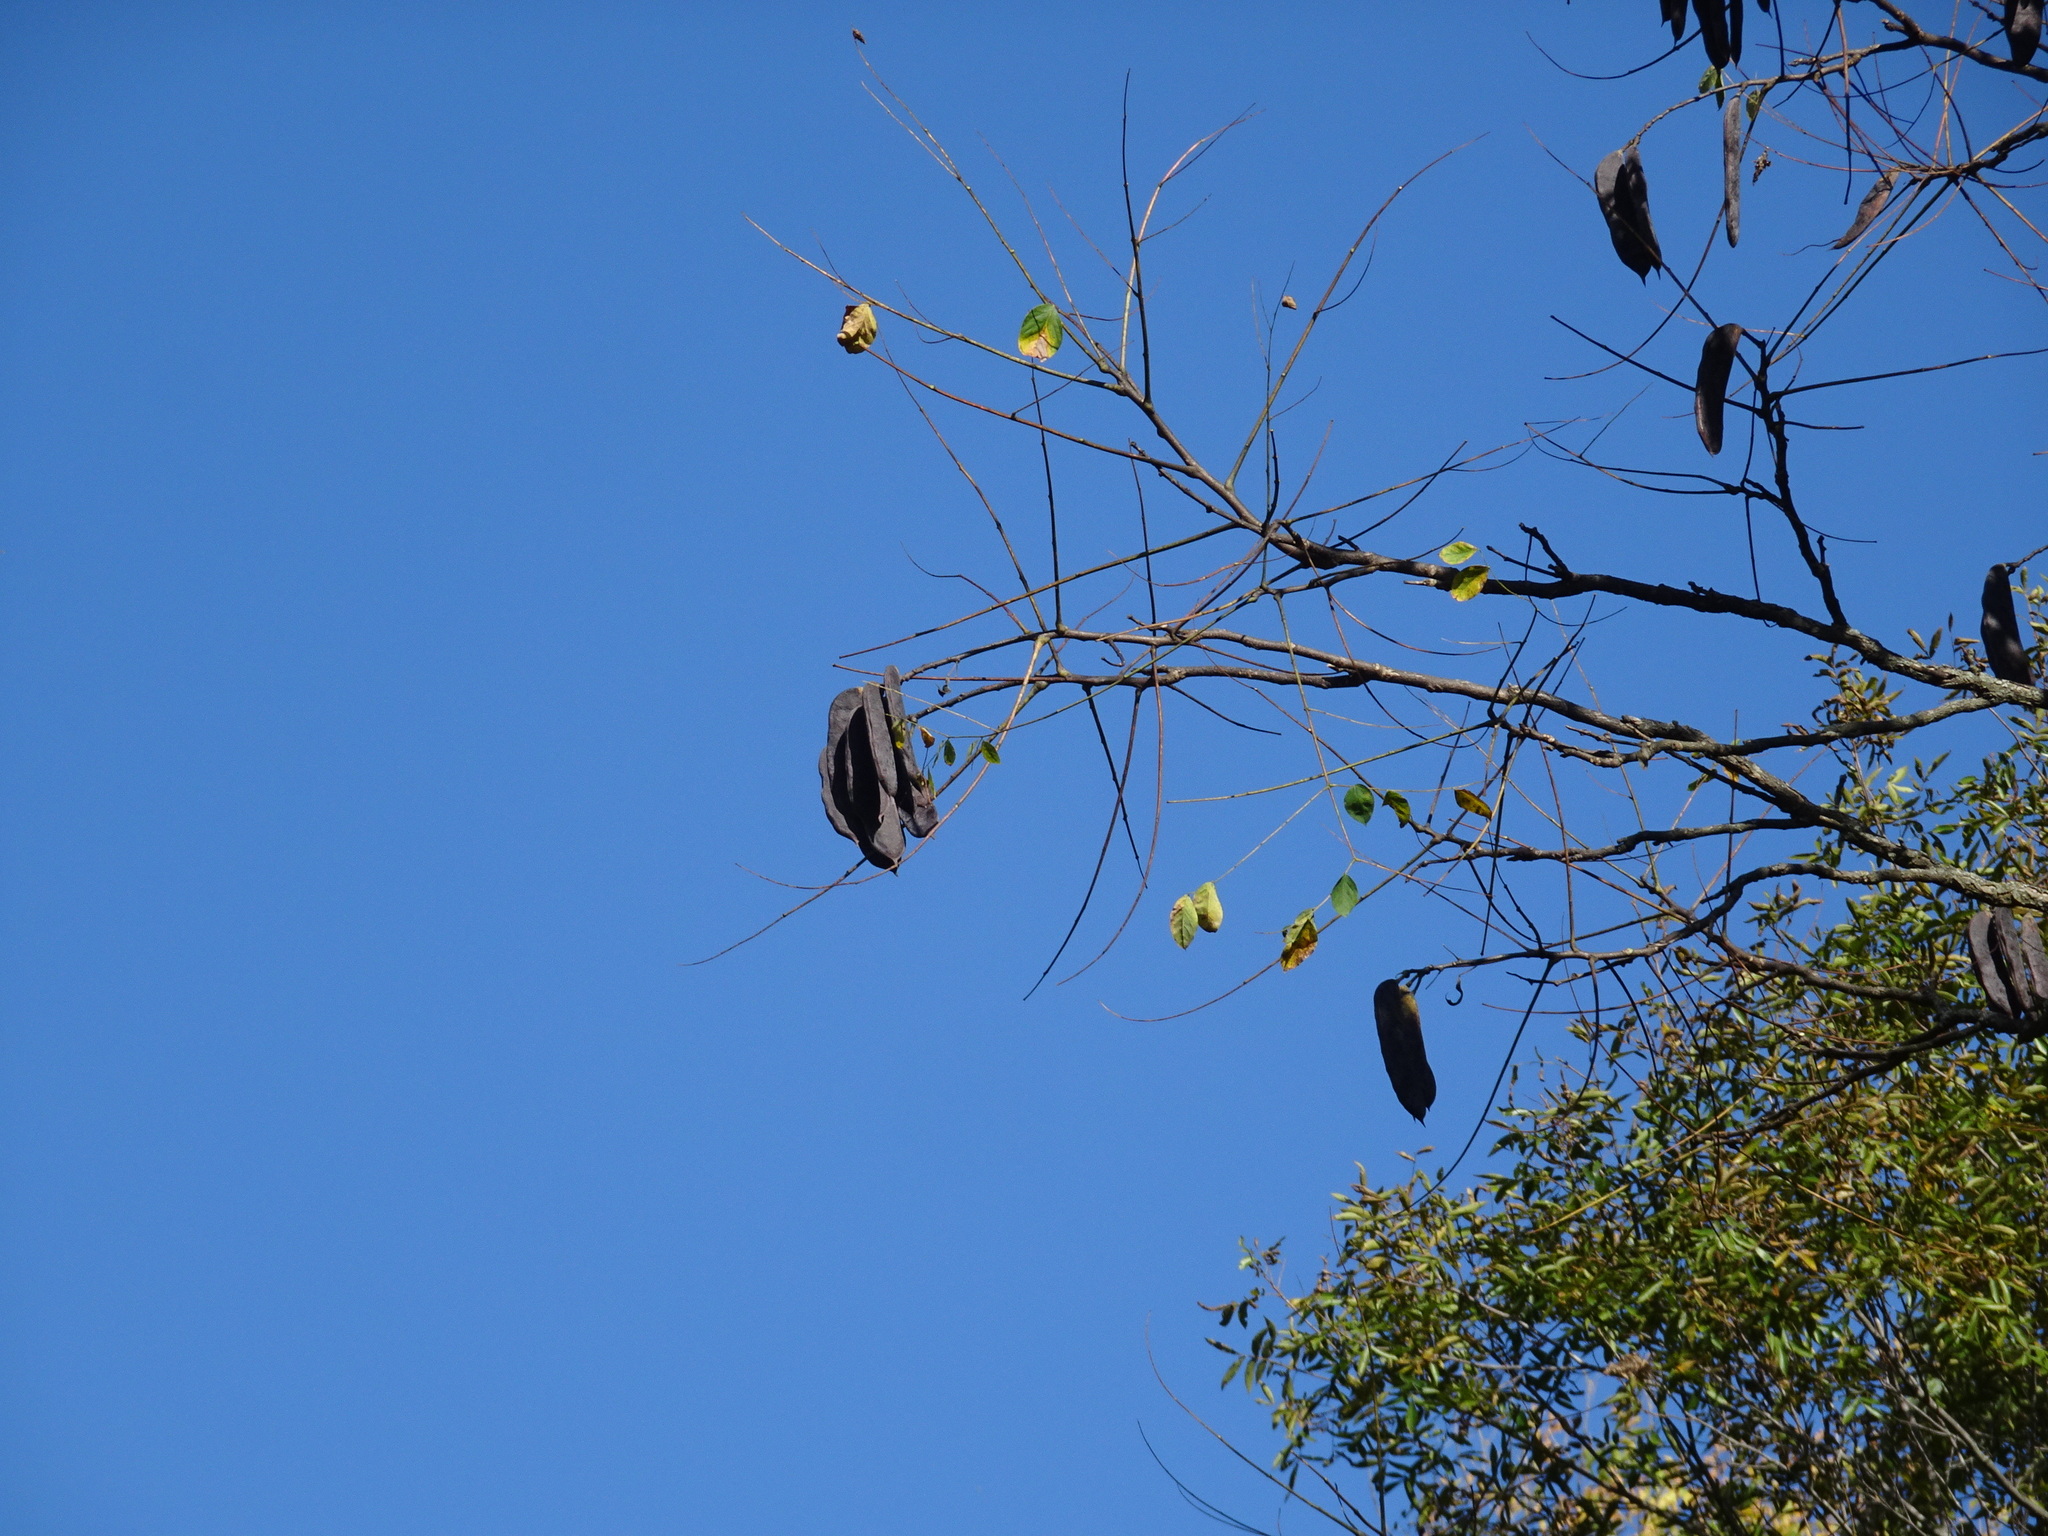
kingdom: Plantae
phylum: Tracheophyta
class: Magnoliopsida
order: Fabales
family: Fabaceae
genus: Gymnocladus
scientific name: Gymnocladus dioicus
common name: Kentucky coffee-tree
